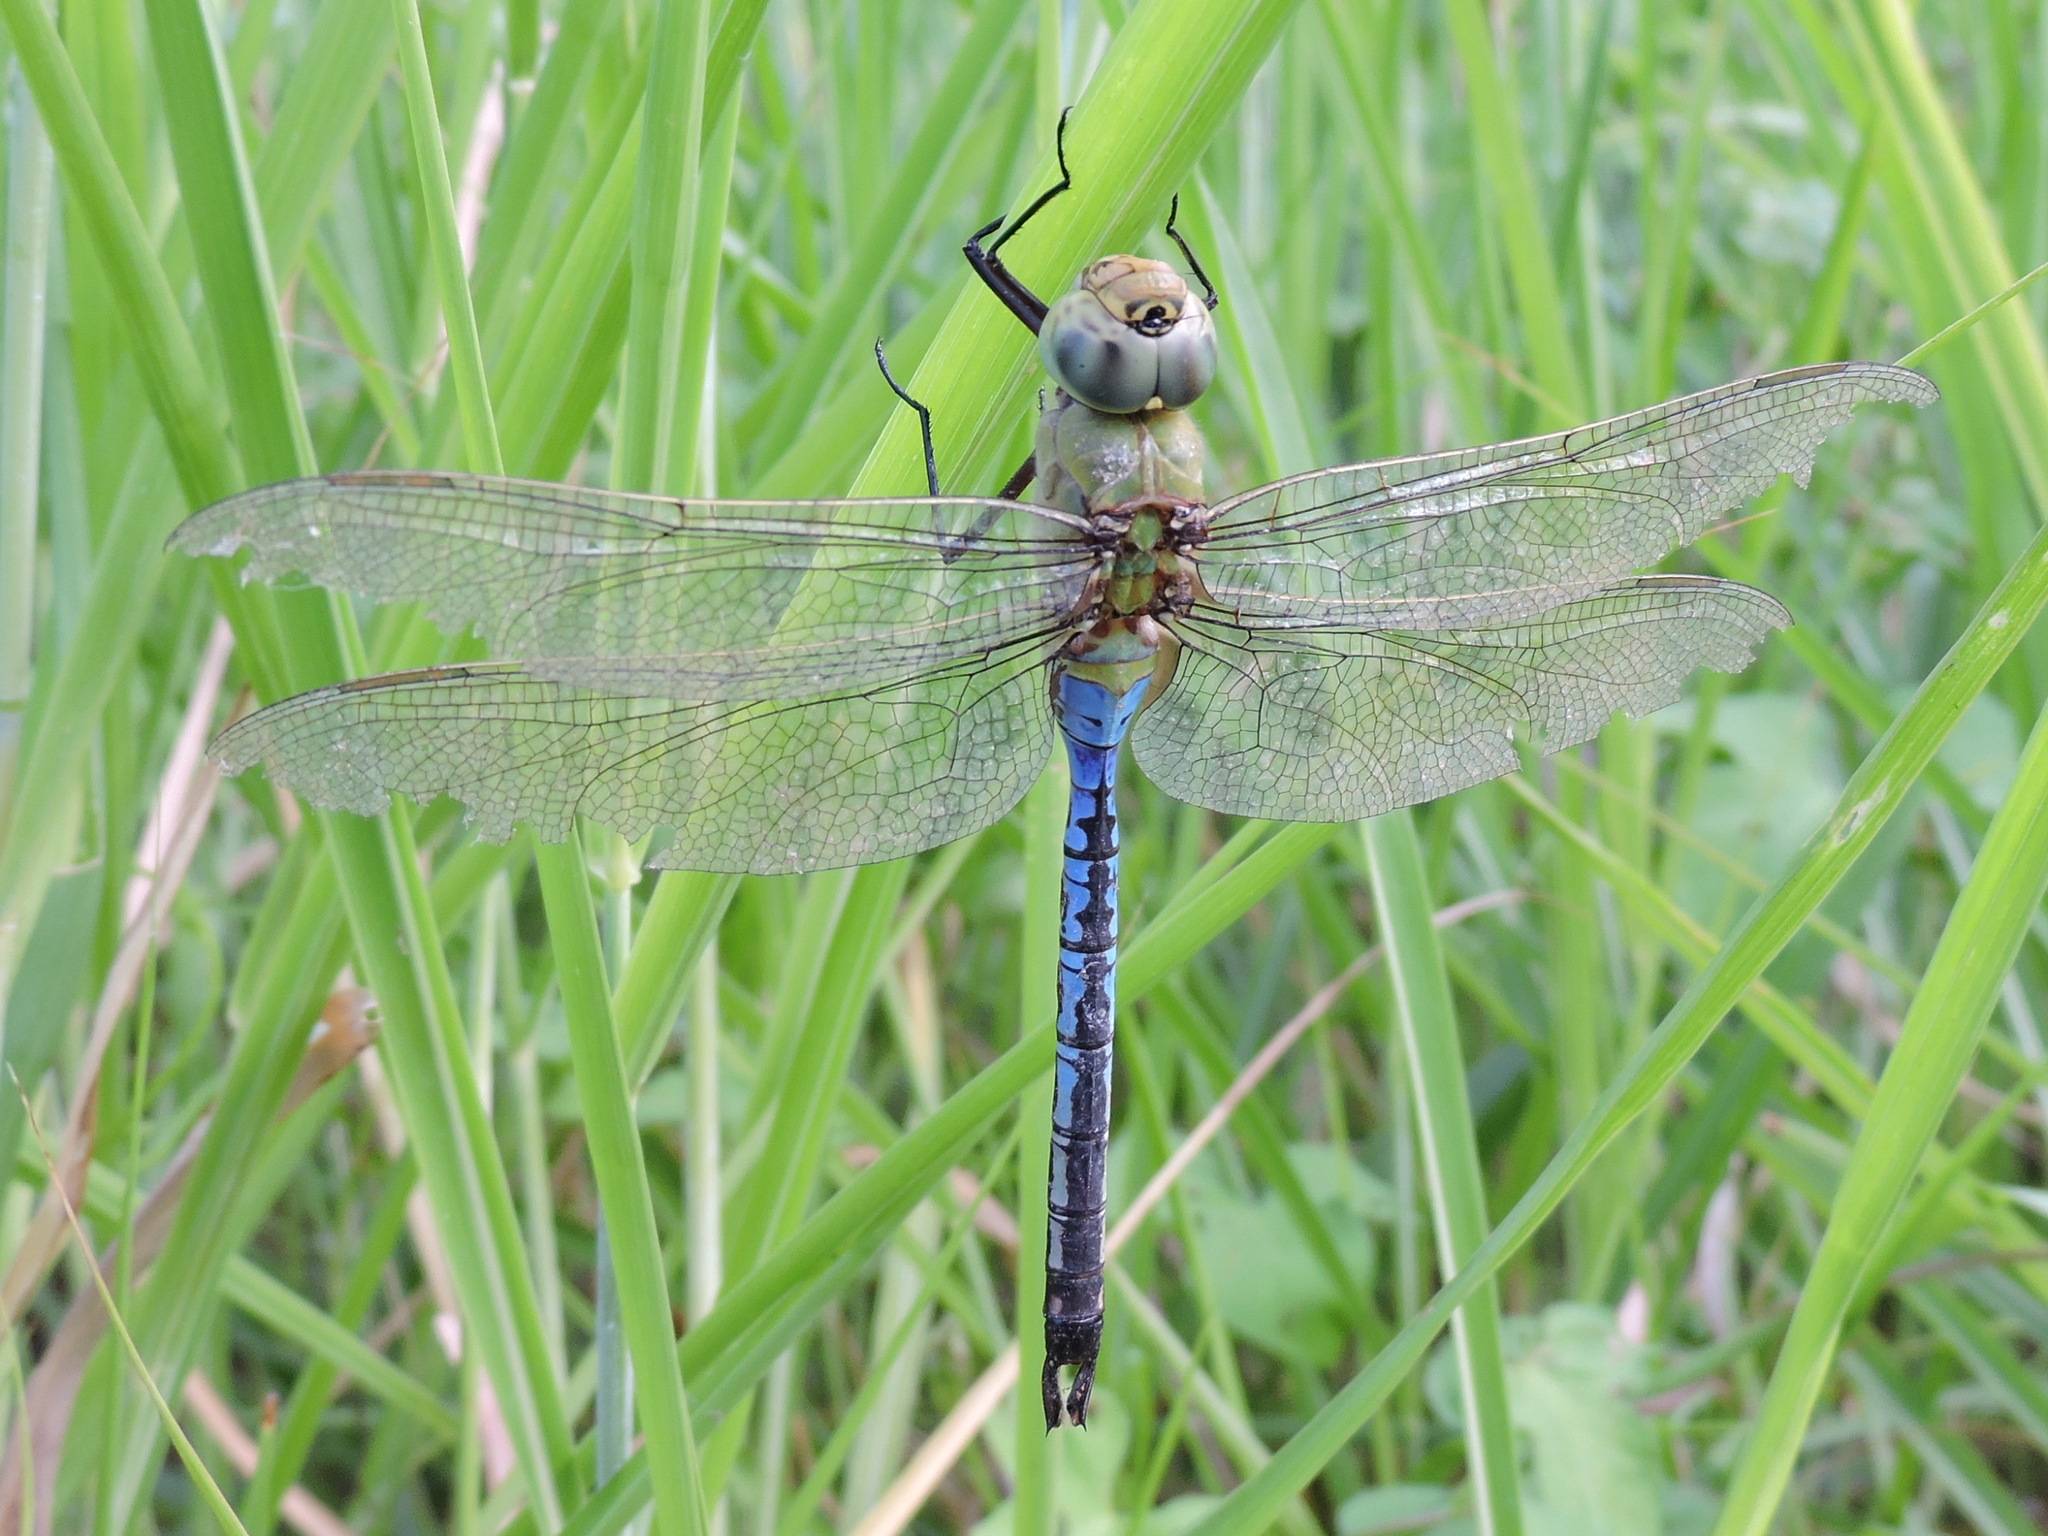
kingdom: Animalia
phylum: Arthropoda
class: Insecta
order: Odonata
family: Aeshnidae
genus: Anax
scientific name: Anax junius
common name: Common green darner
